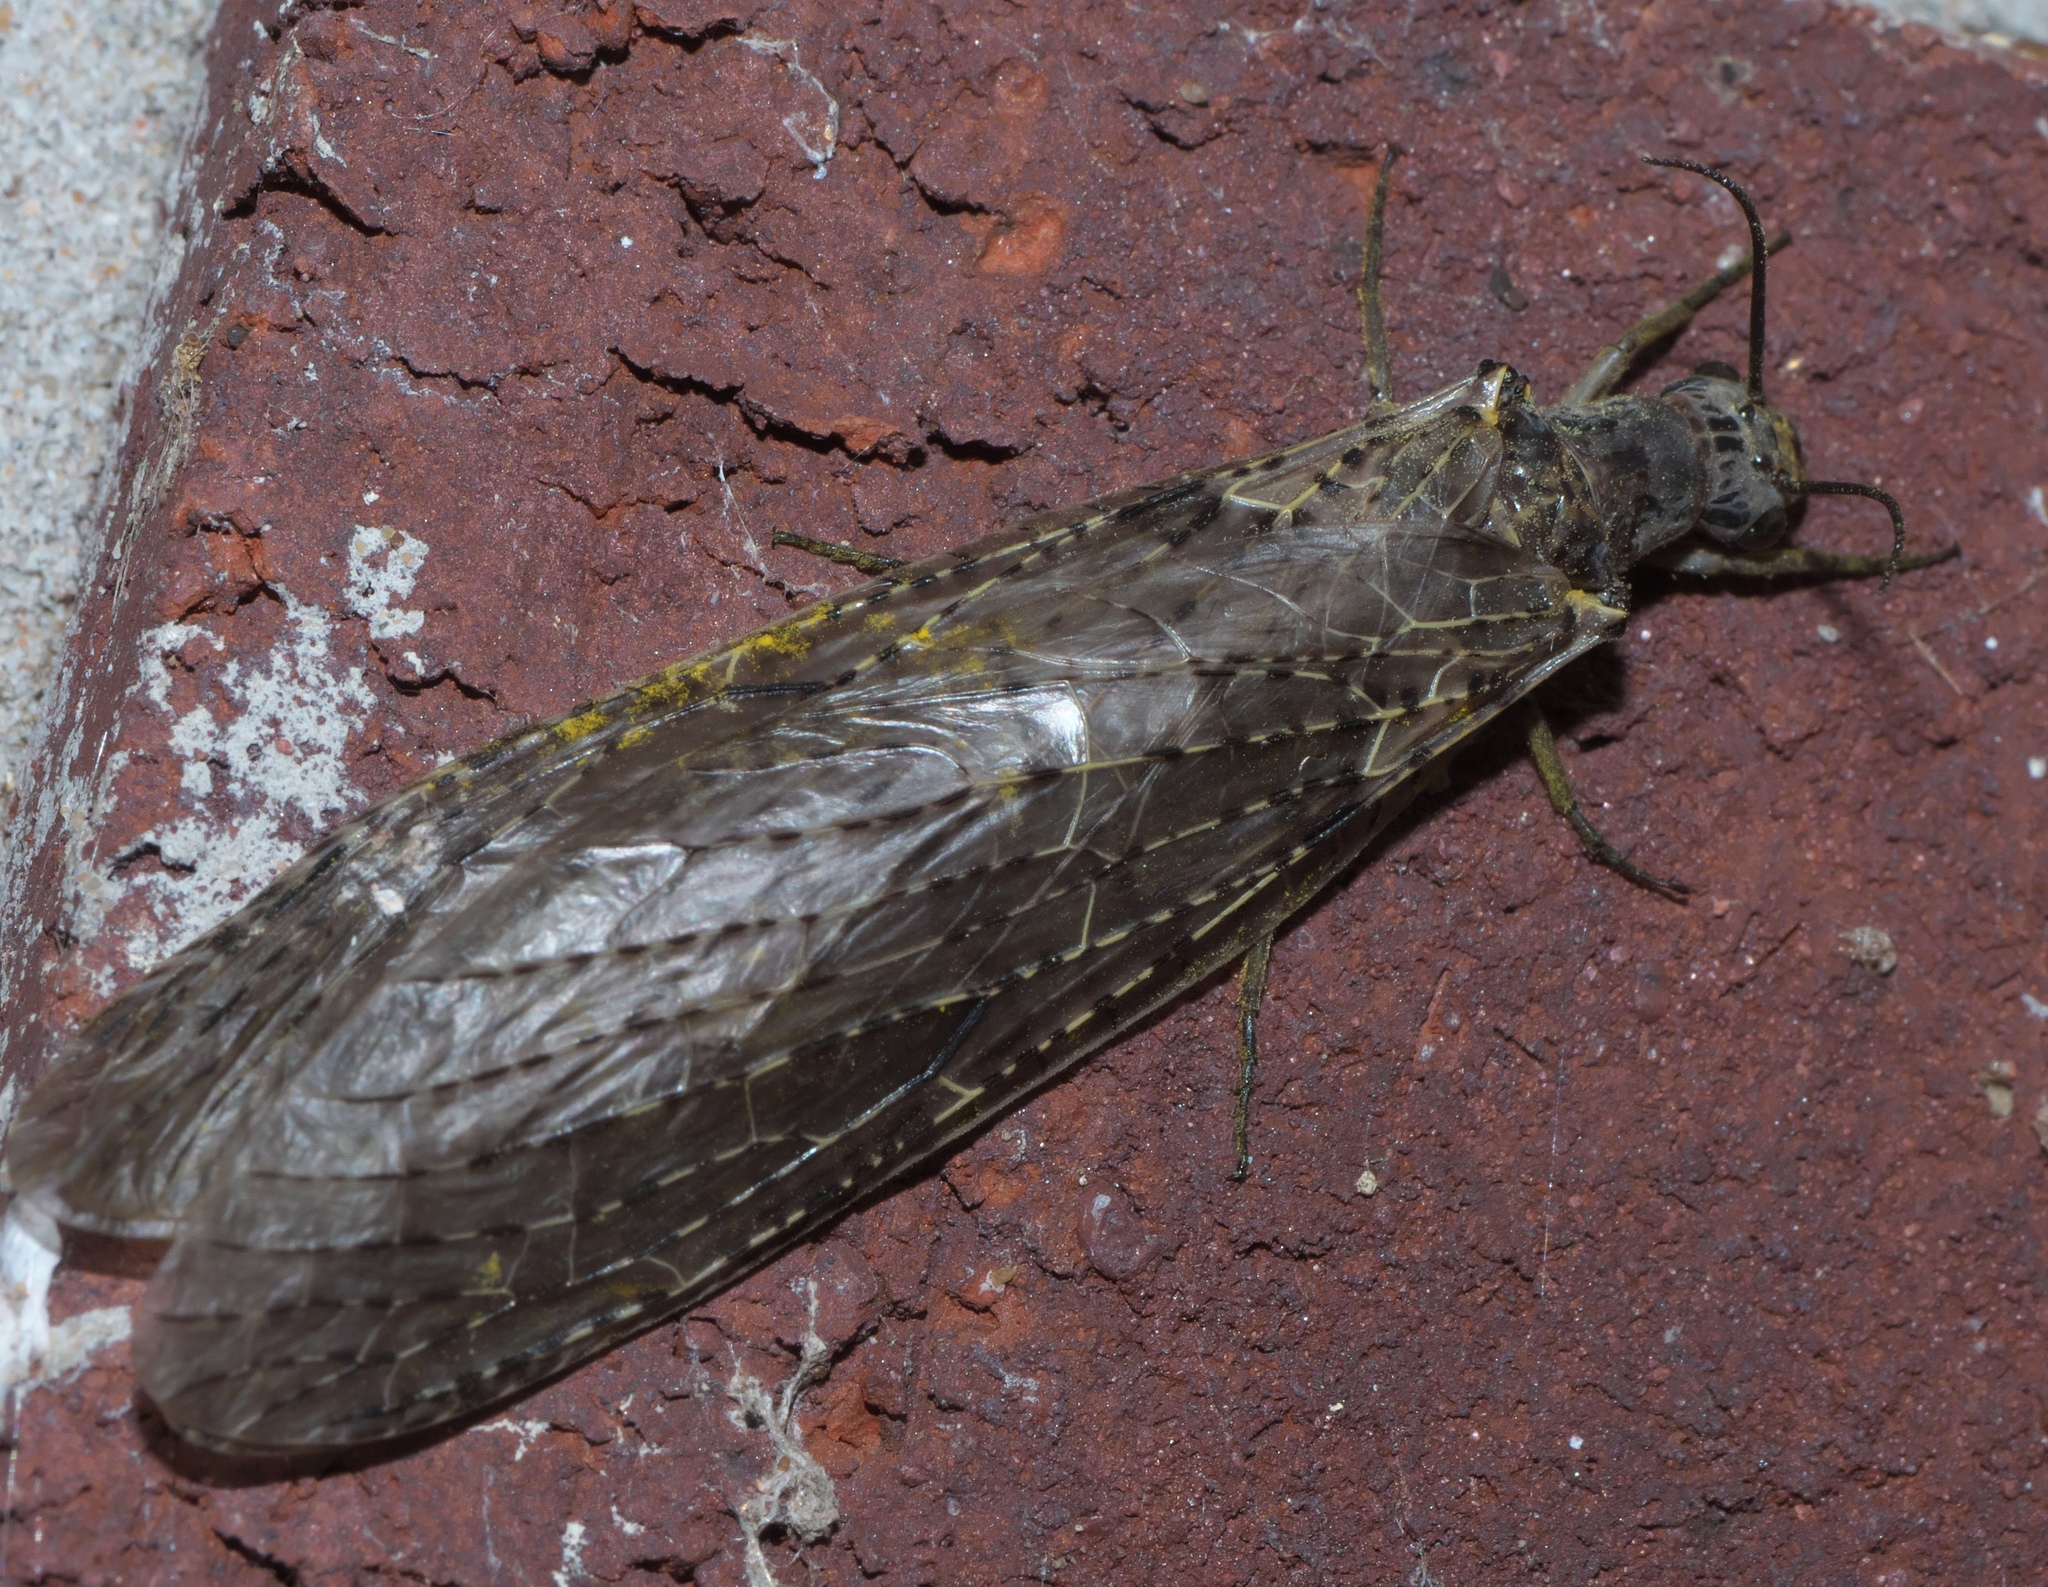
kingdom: Animalia
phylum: Arthropoda
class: Insecta
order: Megaloptera
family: Corydalidae
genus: Chauliodes
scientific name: Chauliodes rastricornis
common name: Spring fishfly
